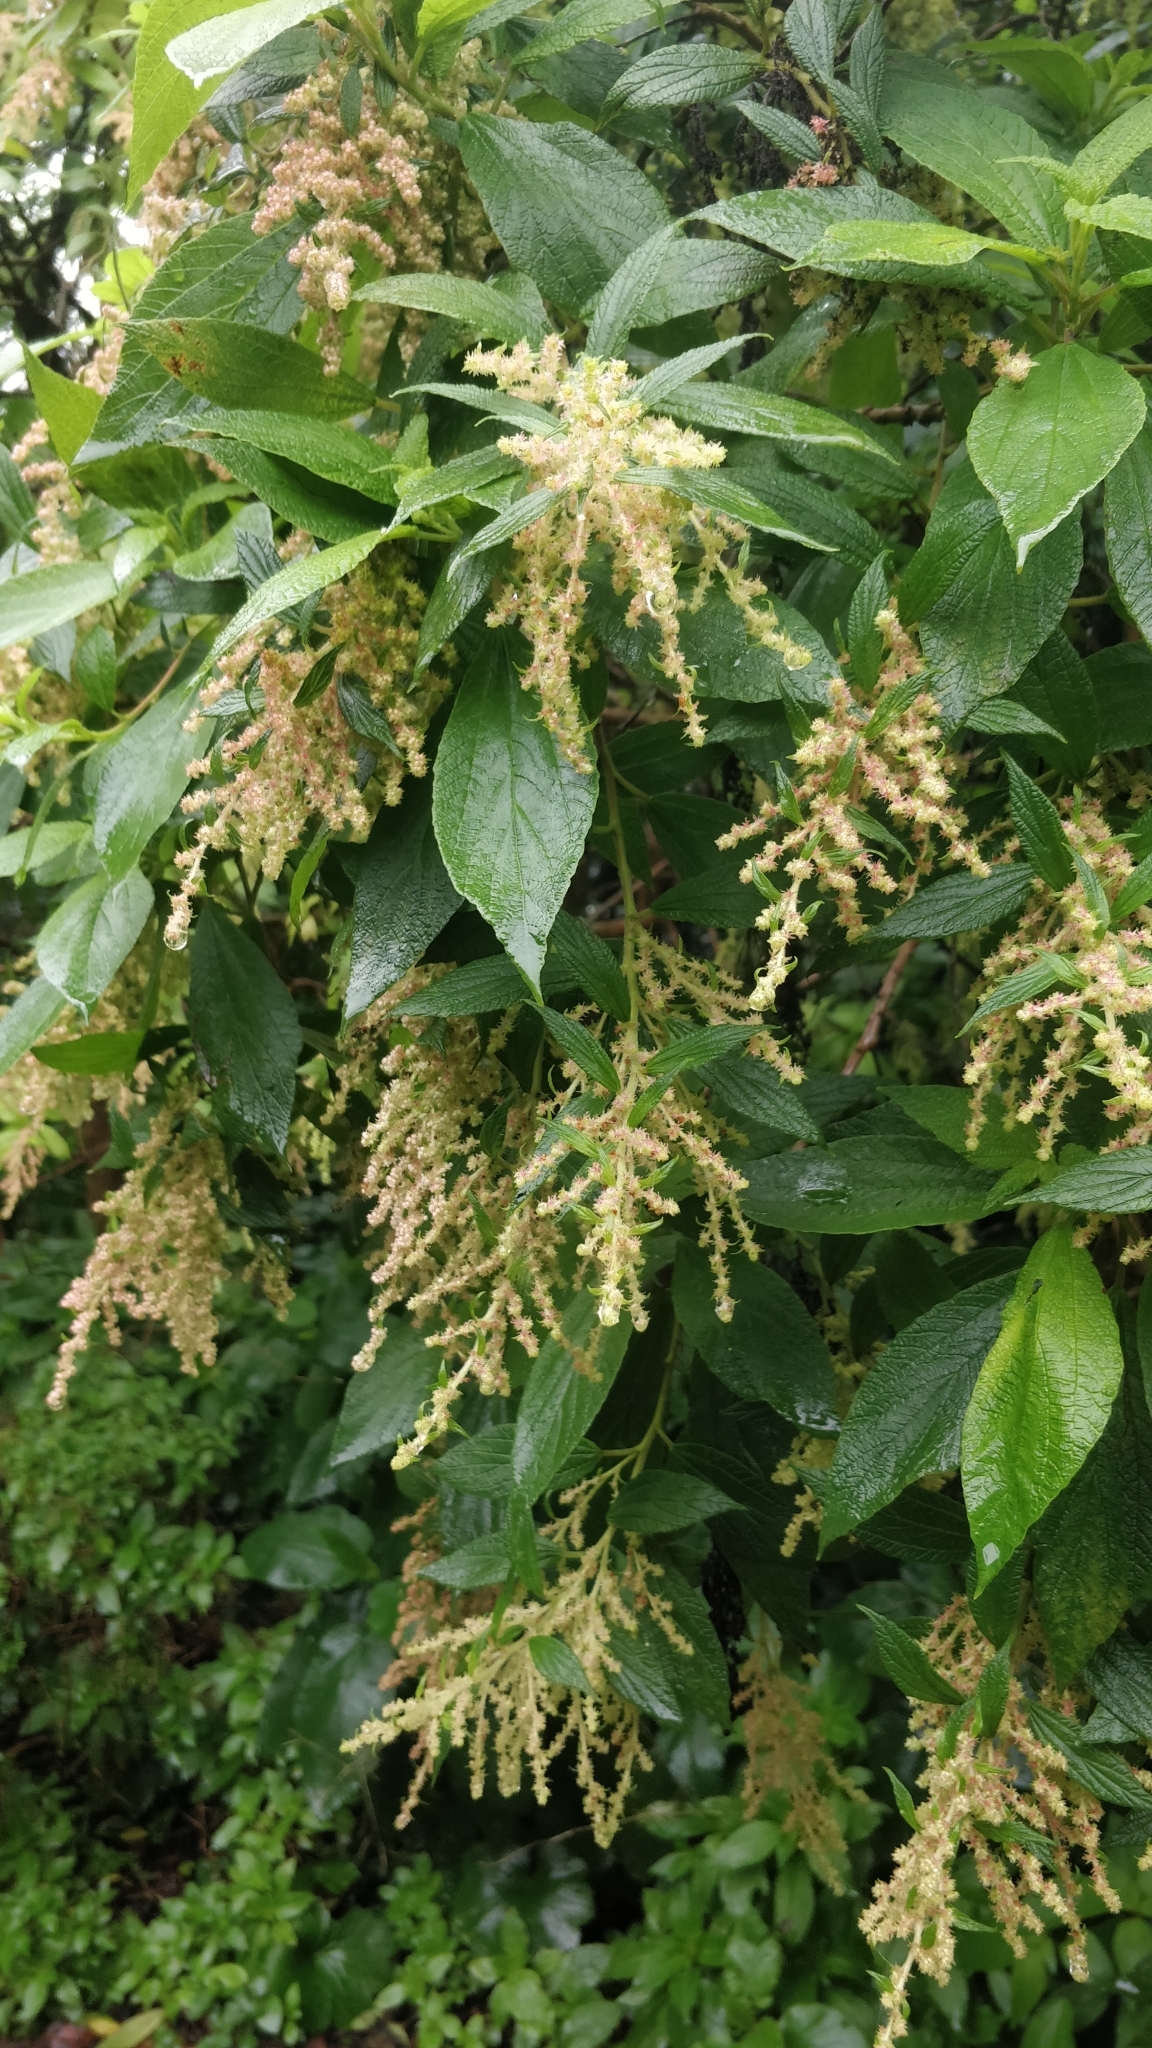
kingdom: Plantae
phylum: Tracheophyta
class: Magnoliopsida
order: Rosales
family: Urticaceae
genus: Gesnouinia
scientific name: Gesnouinia arborea
